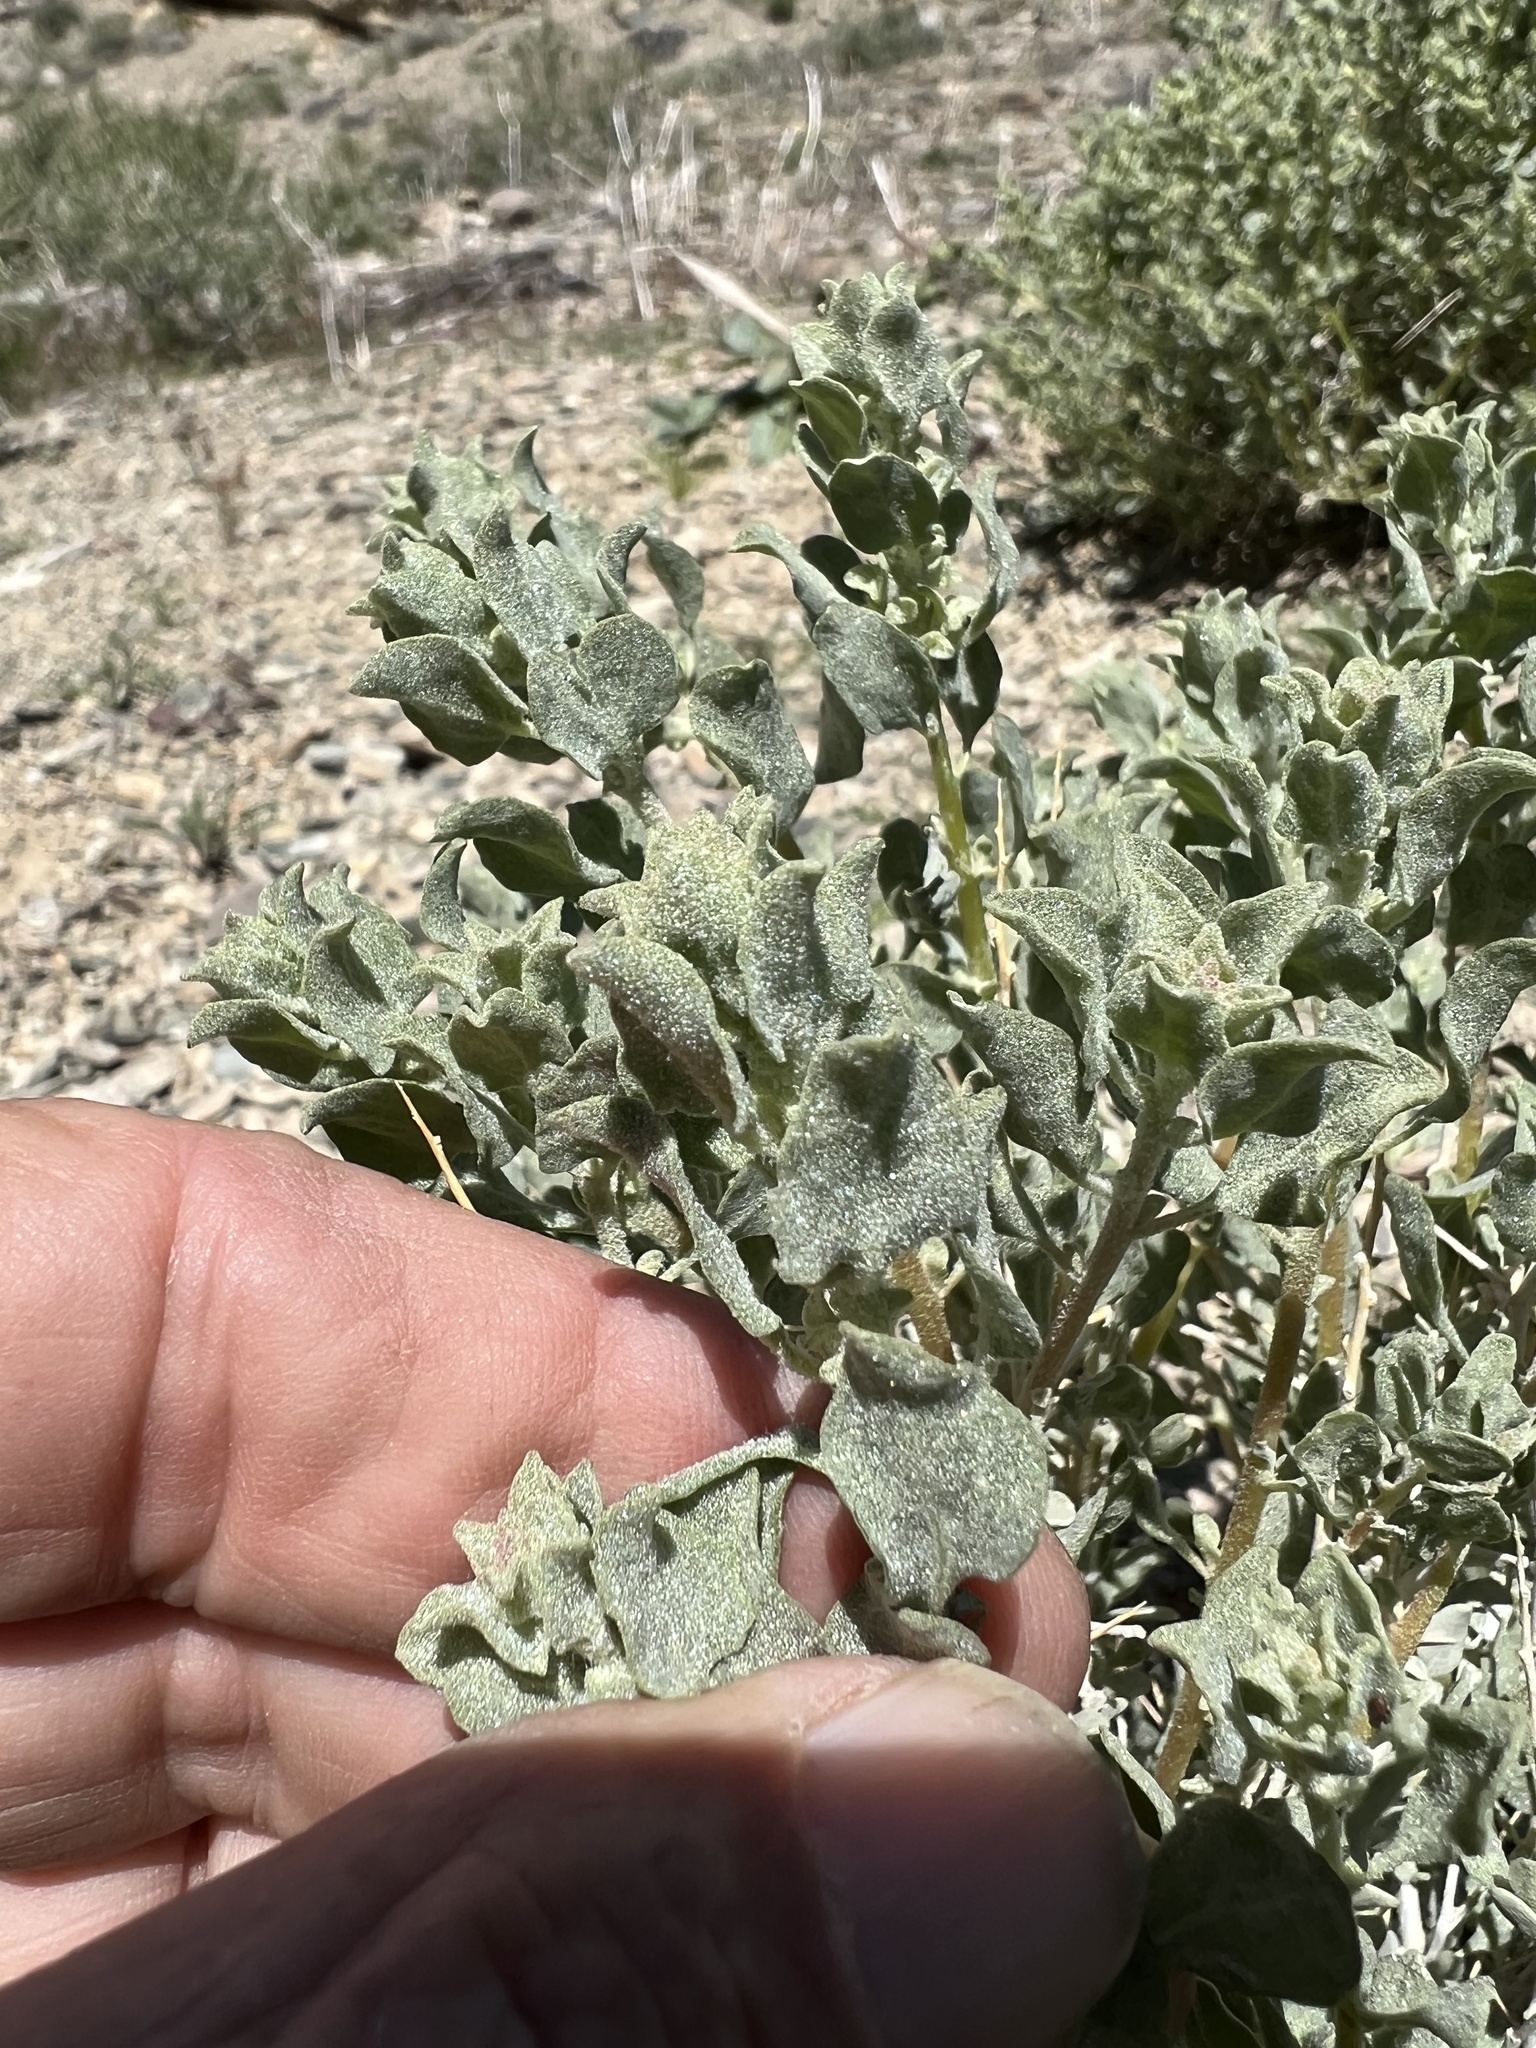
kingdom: Plantae
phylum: Tracheophyta
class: Magnoliopsida
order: Caryophyllales
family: Amaranthaceae
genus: Atriplex
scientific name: Atriplex confertifolia
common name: Shadscale
